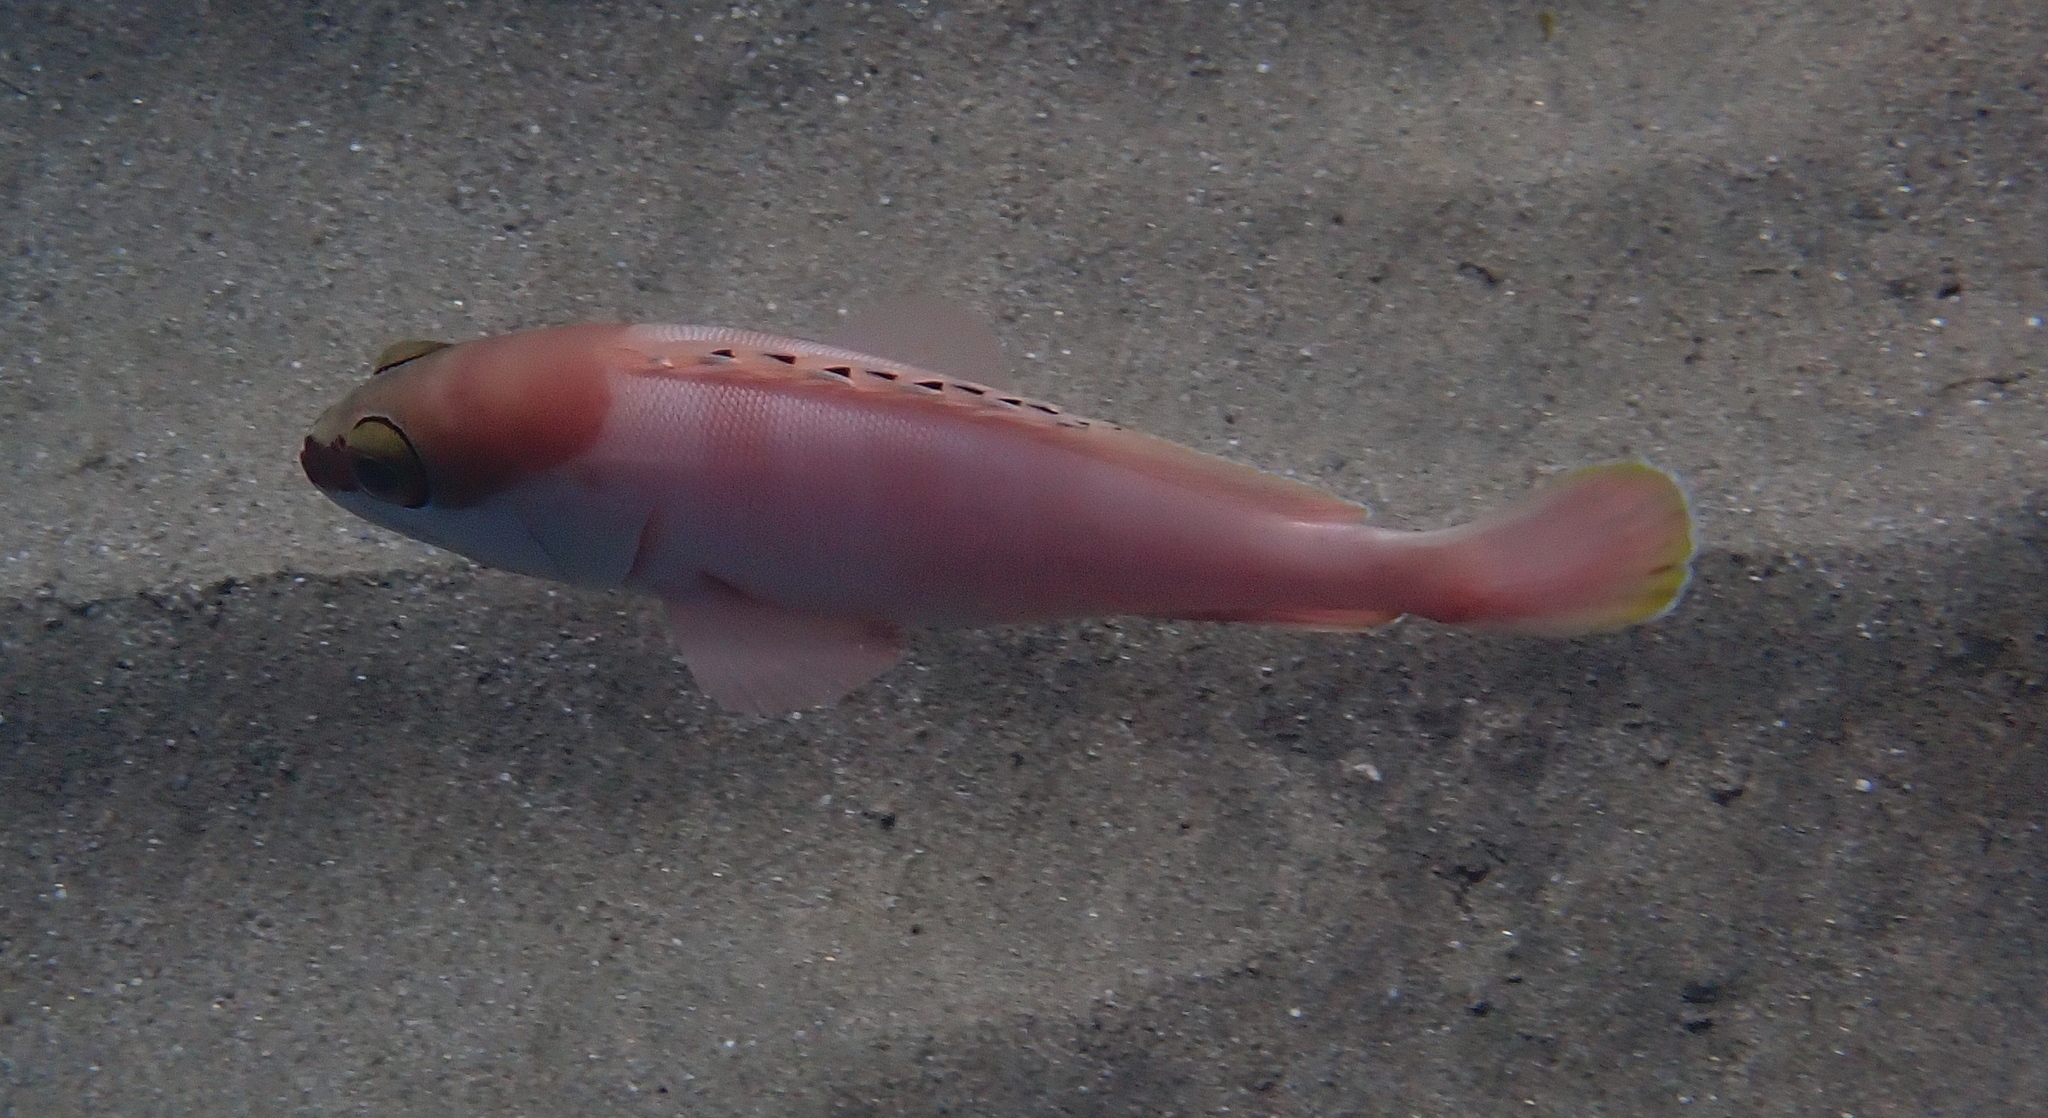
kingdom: Animalia
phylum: Chordata
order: Perciformes
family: Serranidae
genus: Epinephelus
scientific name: Epinephelus fasciatus
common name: Blacktip grouper
